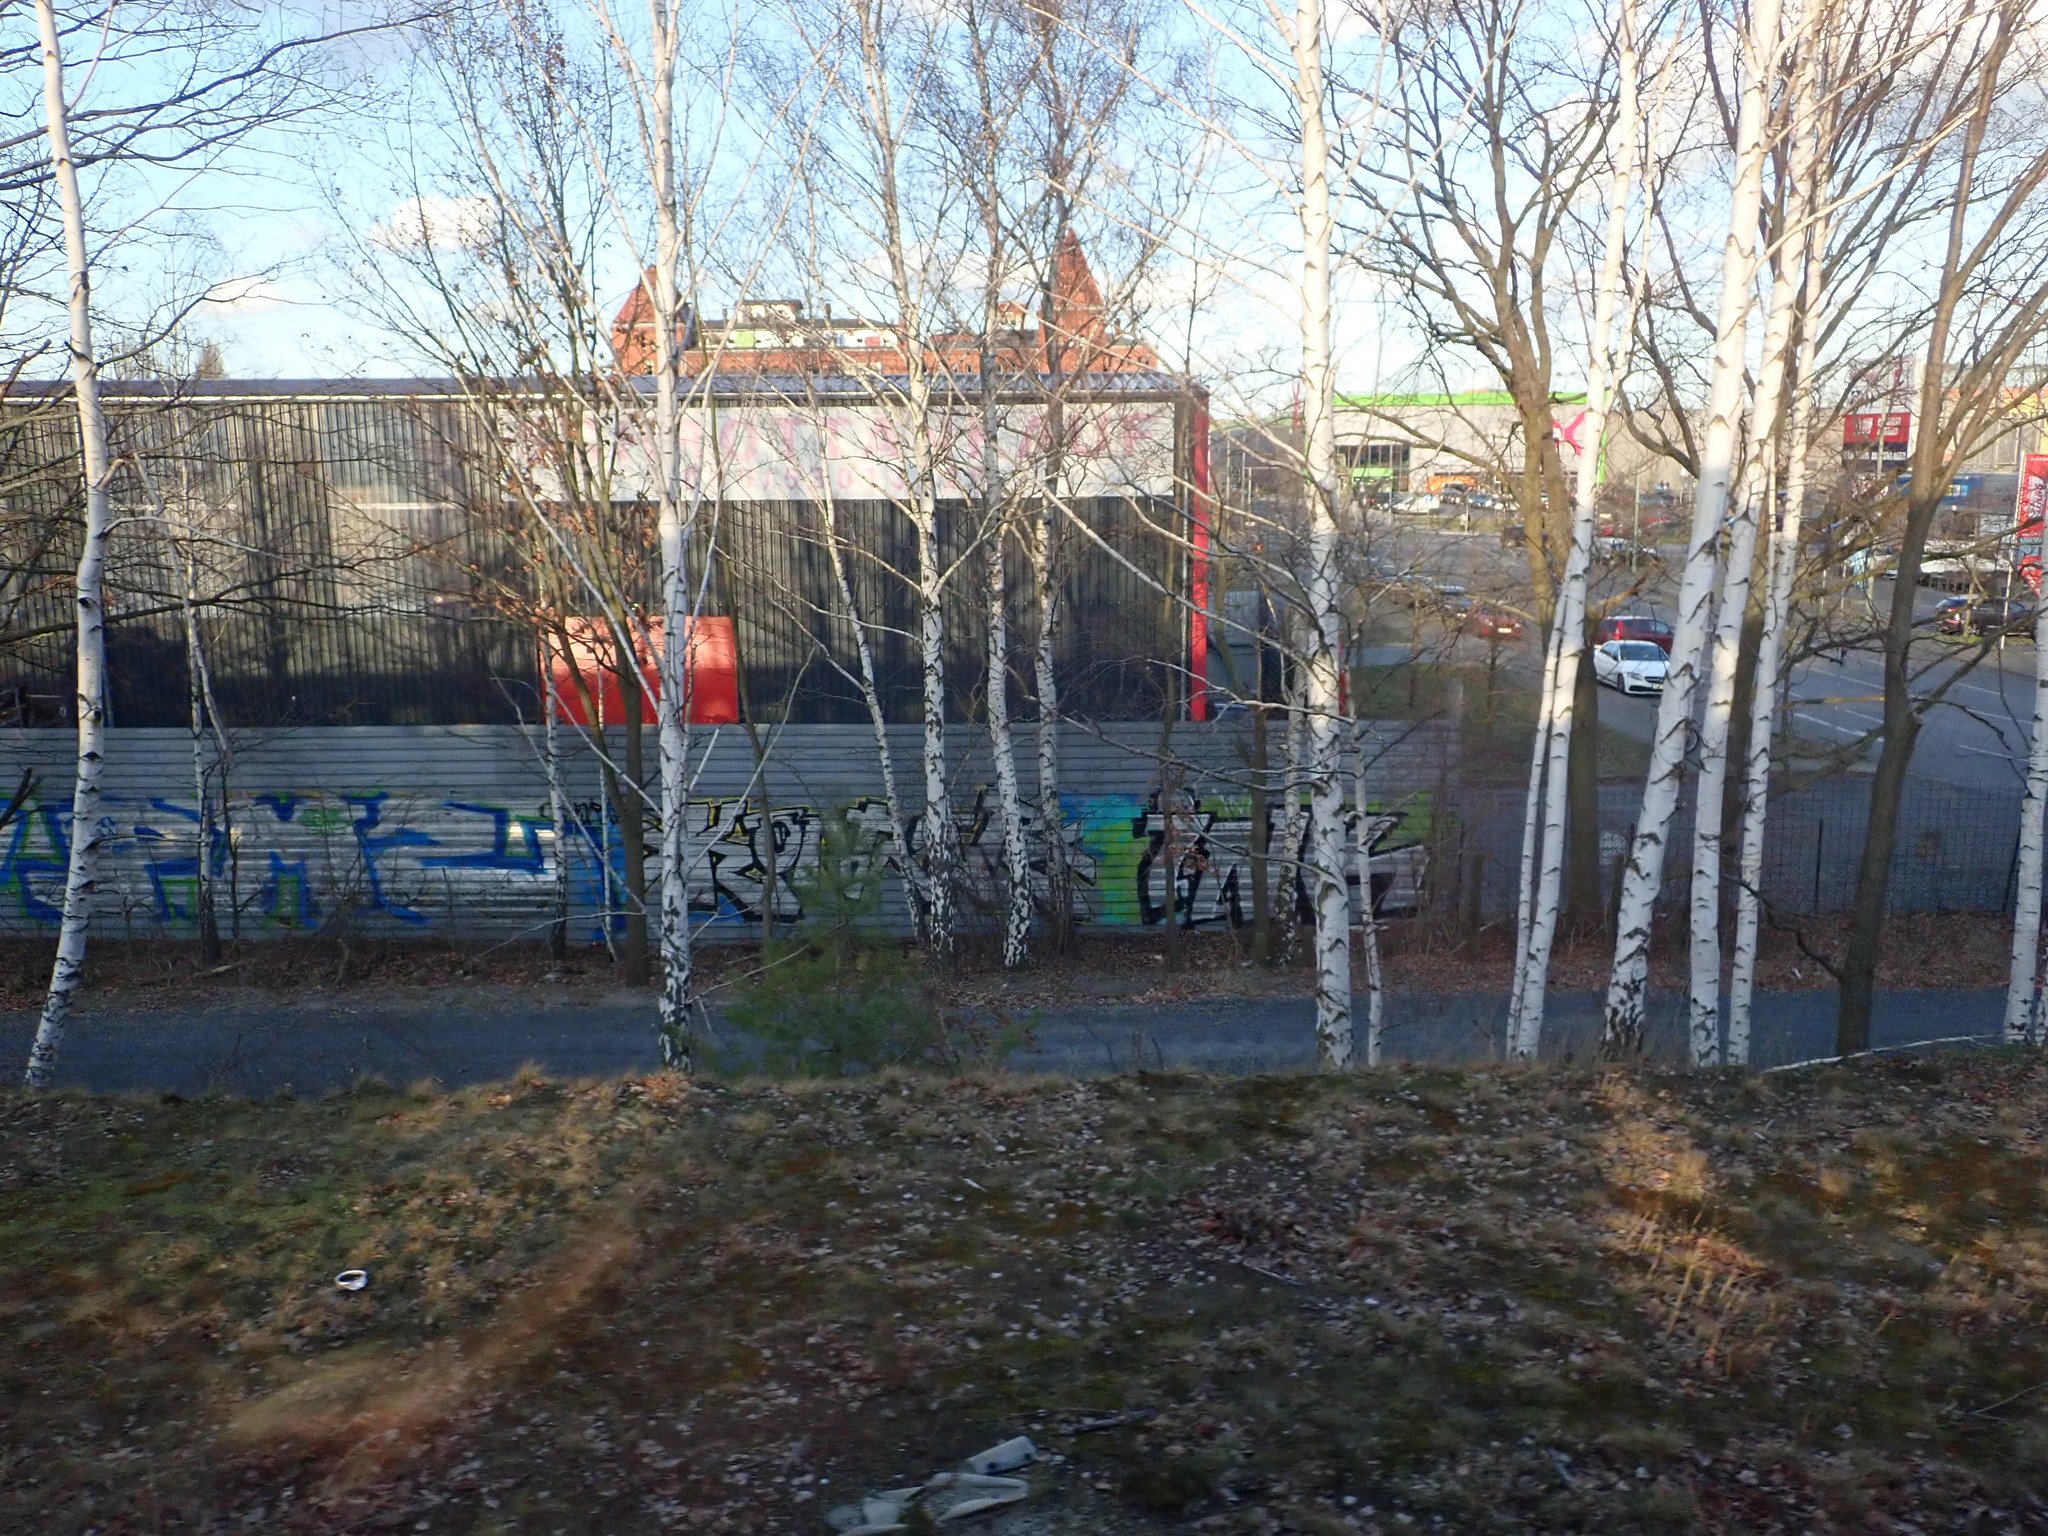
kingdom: Plantae
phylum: Tracheophyta
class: Magnoliopsida
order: Fagales
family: Betulaceae
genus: Betula
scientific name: Betula pendula
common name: Silver birch
